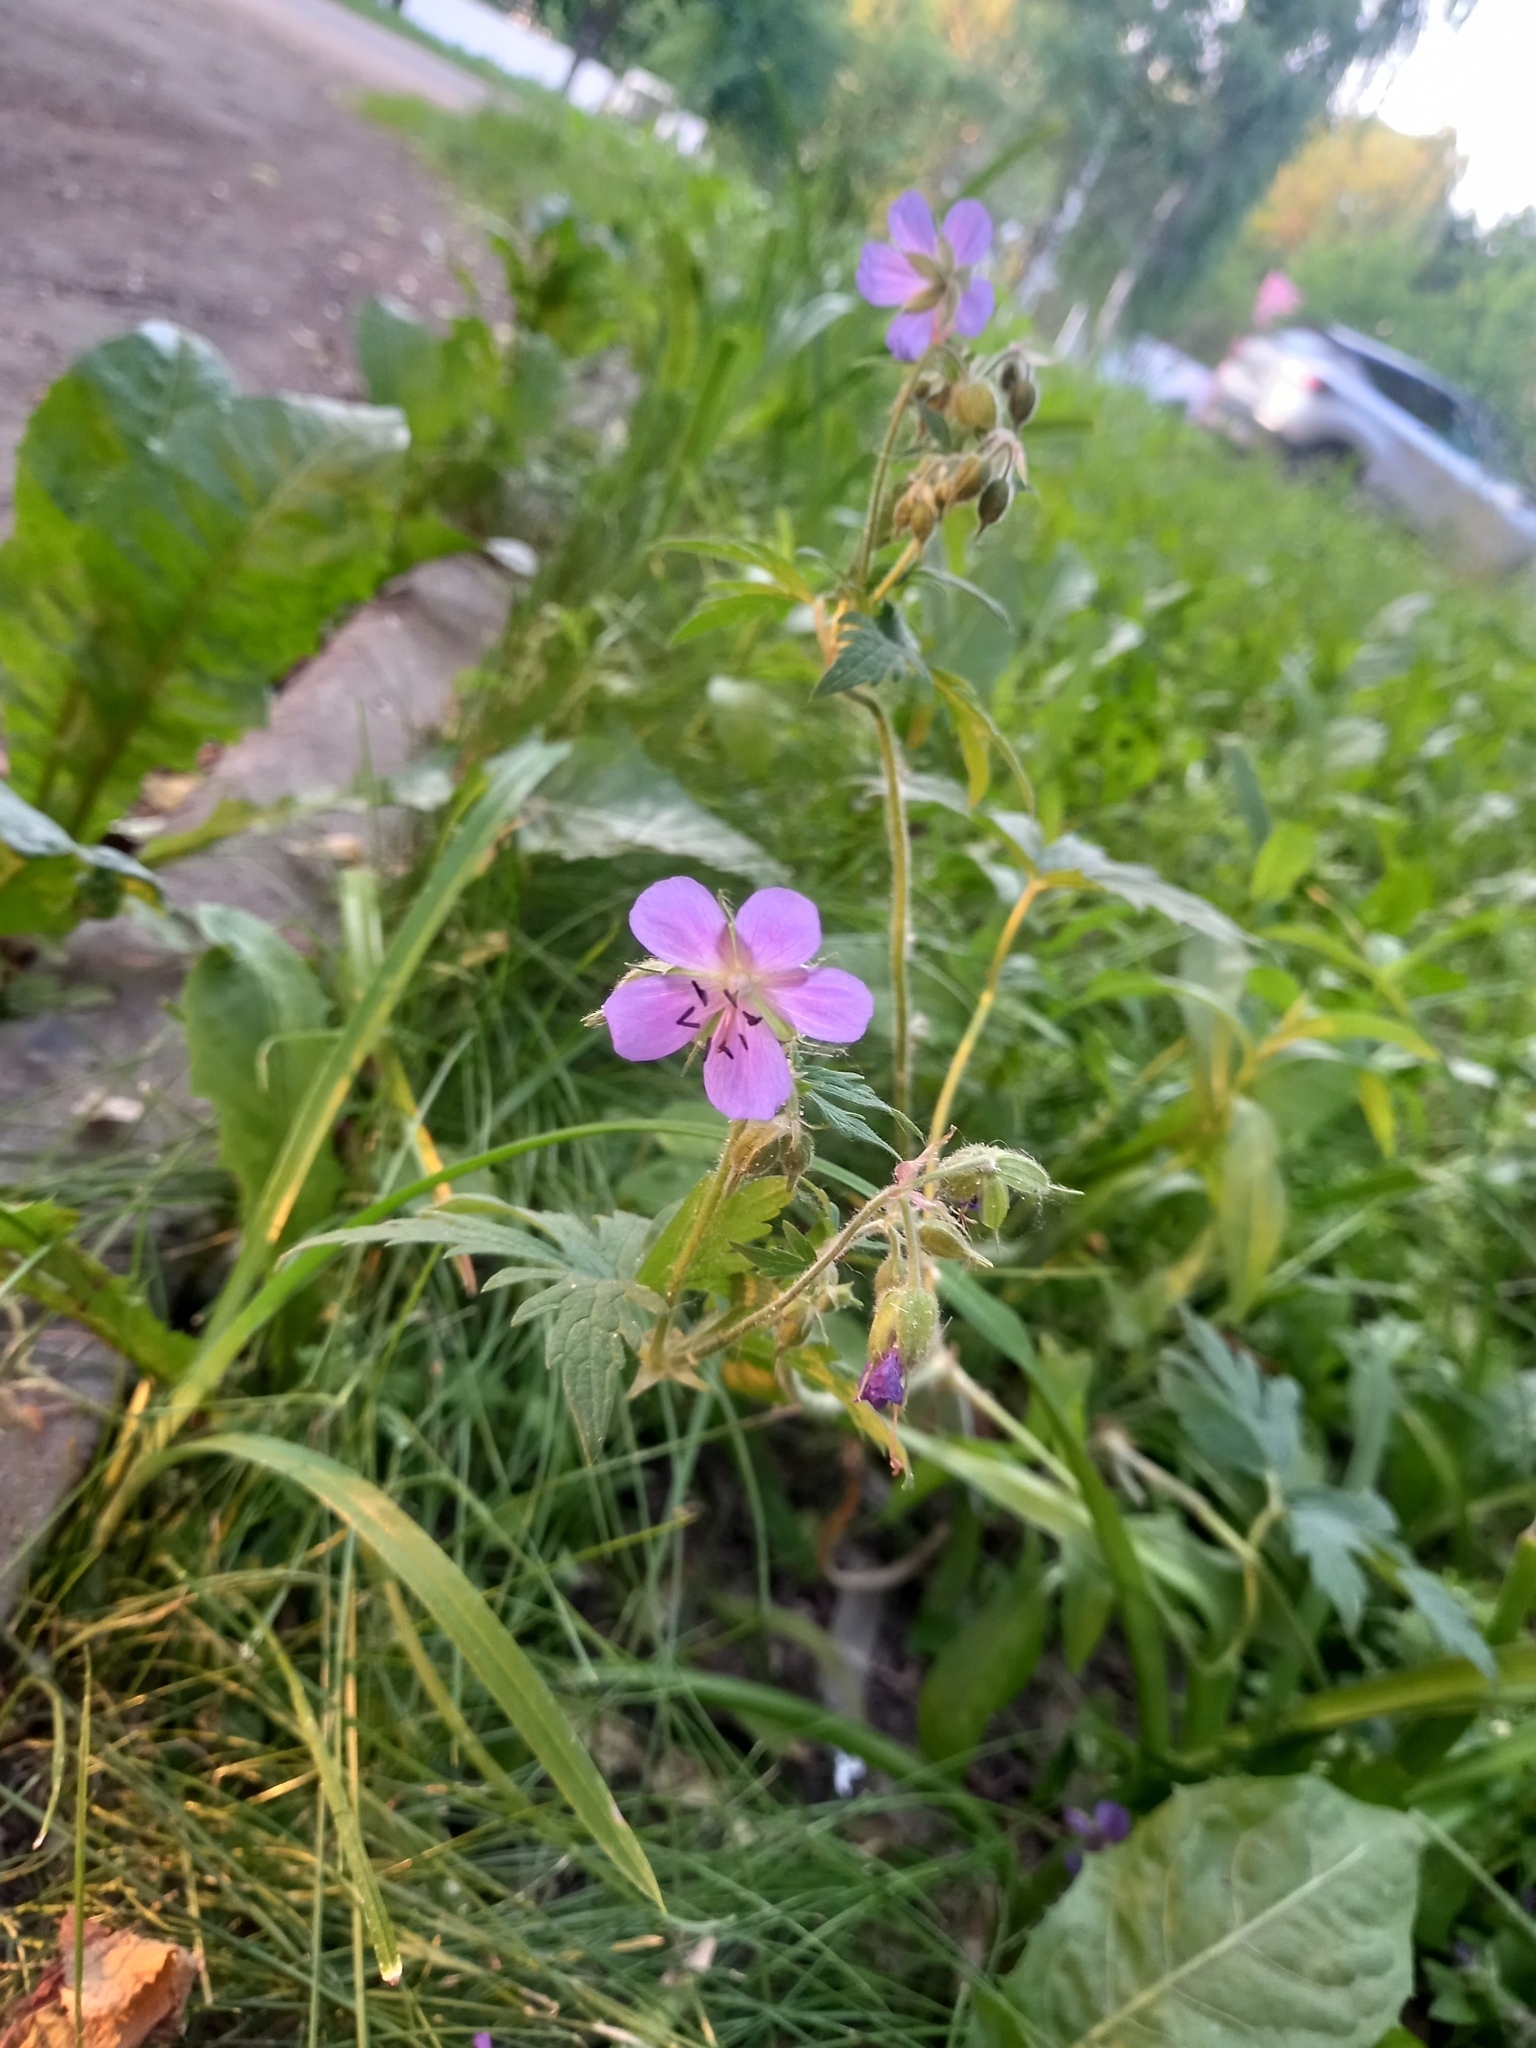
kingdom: Plantae
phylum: Tracheophyta
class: Magnoliopsida
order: Geraniales
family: Geraniaceae
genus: Geranium
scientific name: Geranium pratense
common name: Meadow crane's-bill
